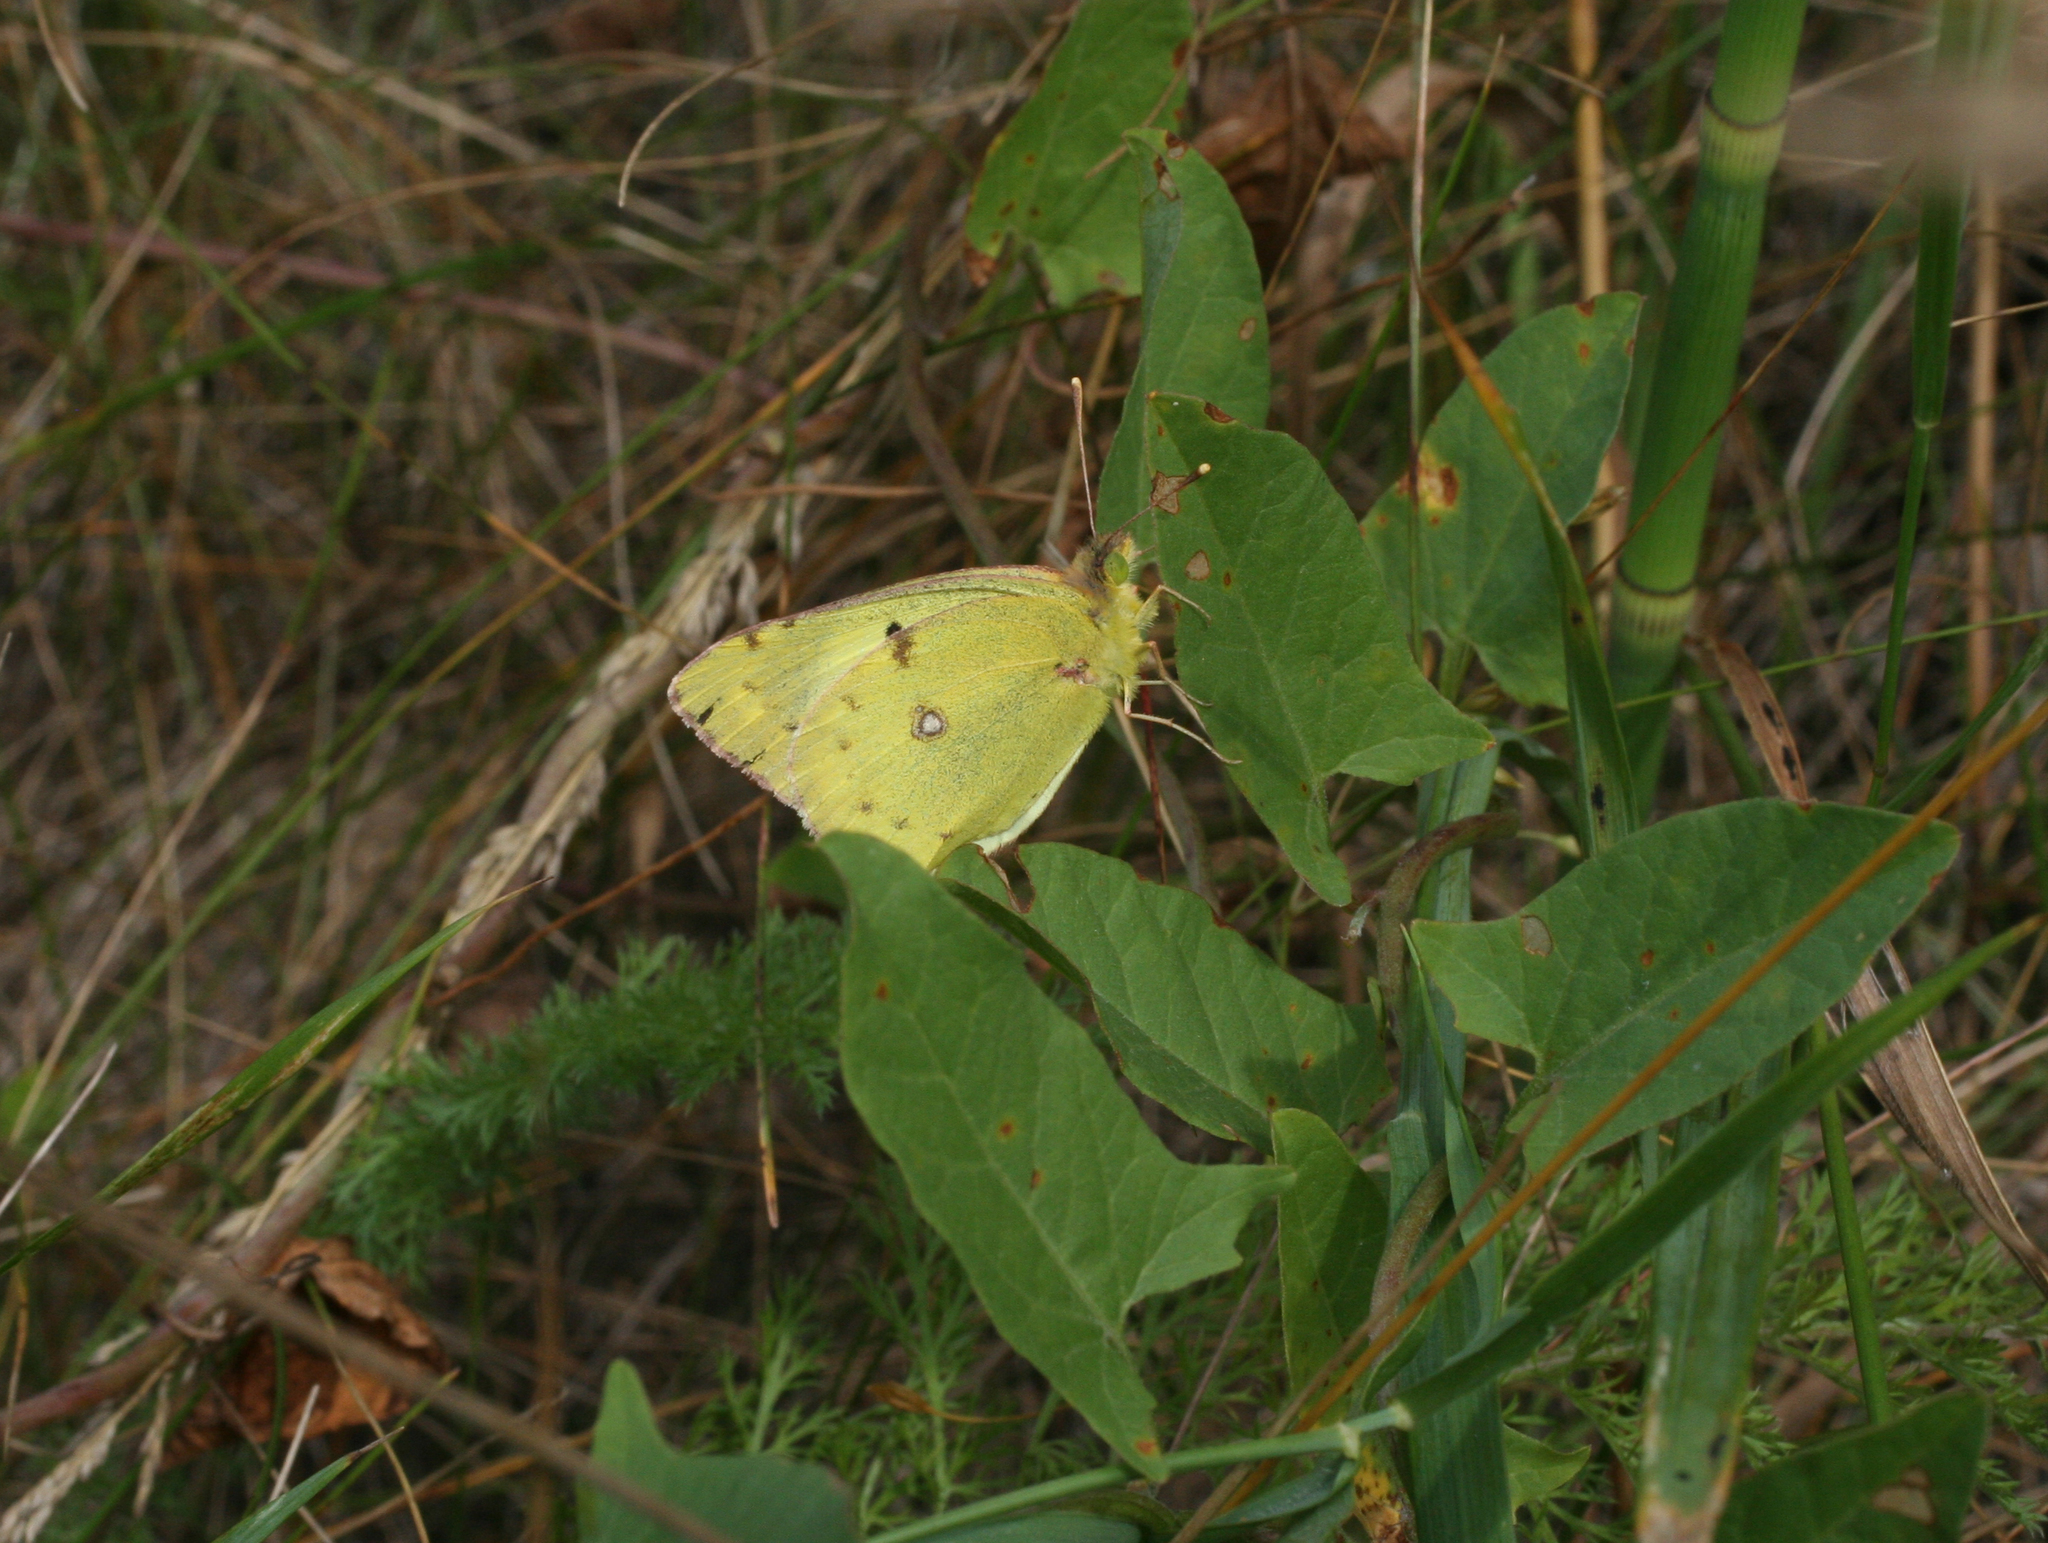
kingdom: Animalia
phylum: Arthropoda
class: Insecta
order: Lepidoptera
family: Pieridae
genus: Colias
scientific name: Colias hyale
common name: Pale clouded yellow
